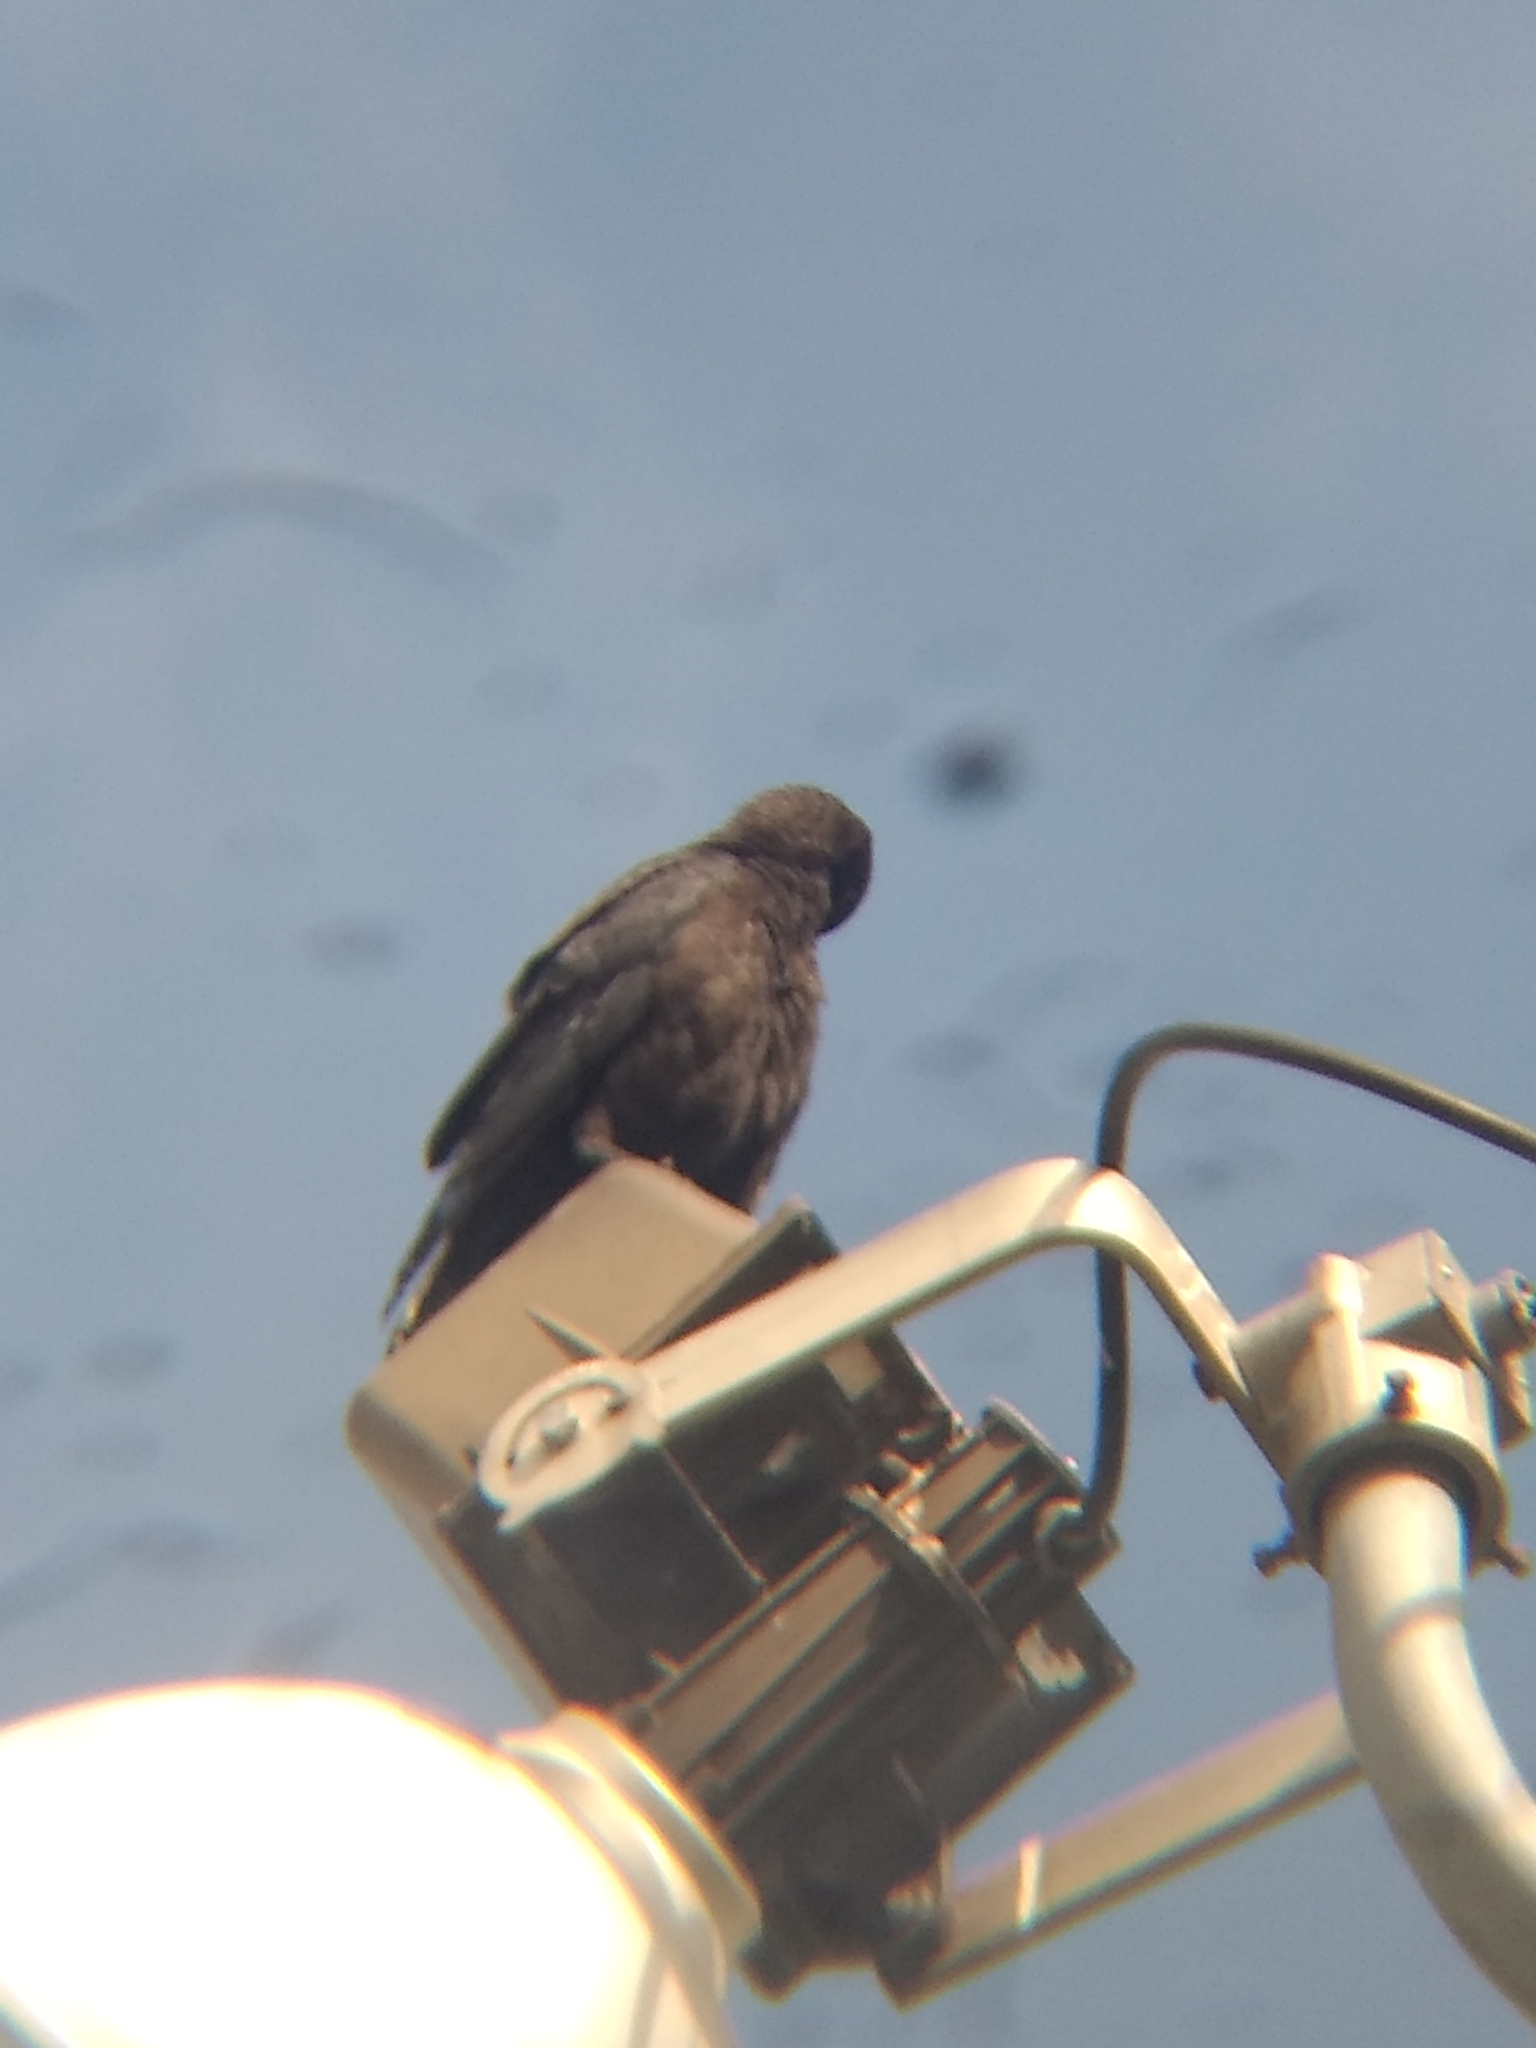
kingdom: Animalia
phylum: Chordata
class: Aves
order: Passeriformes
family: Corvidae
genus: Corvus
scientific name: Corvus brachyrhynchos
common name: American crow
